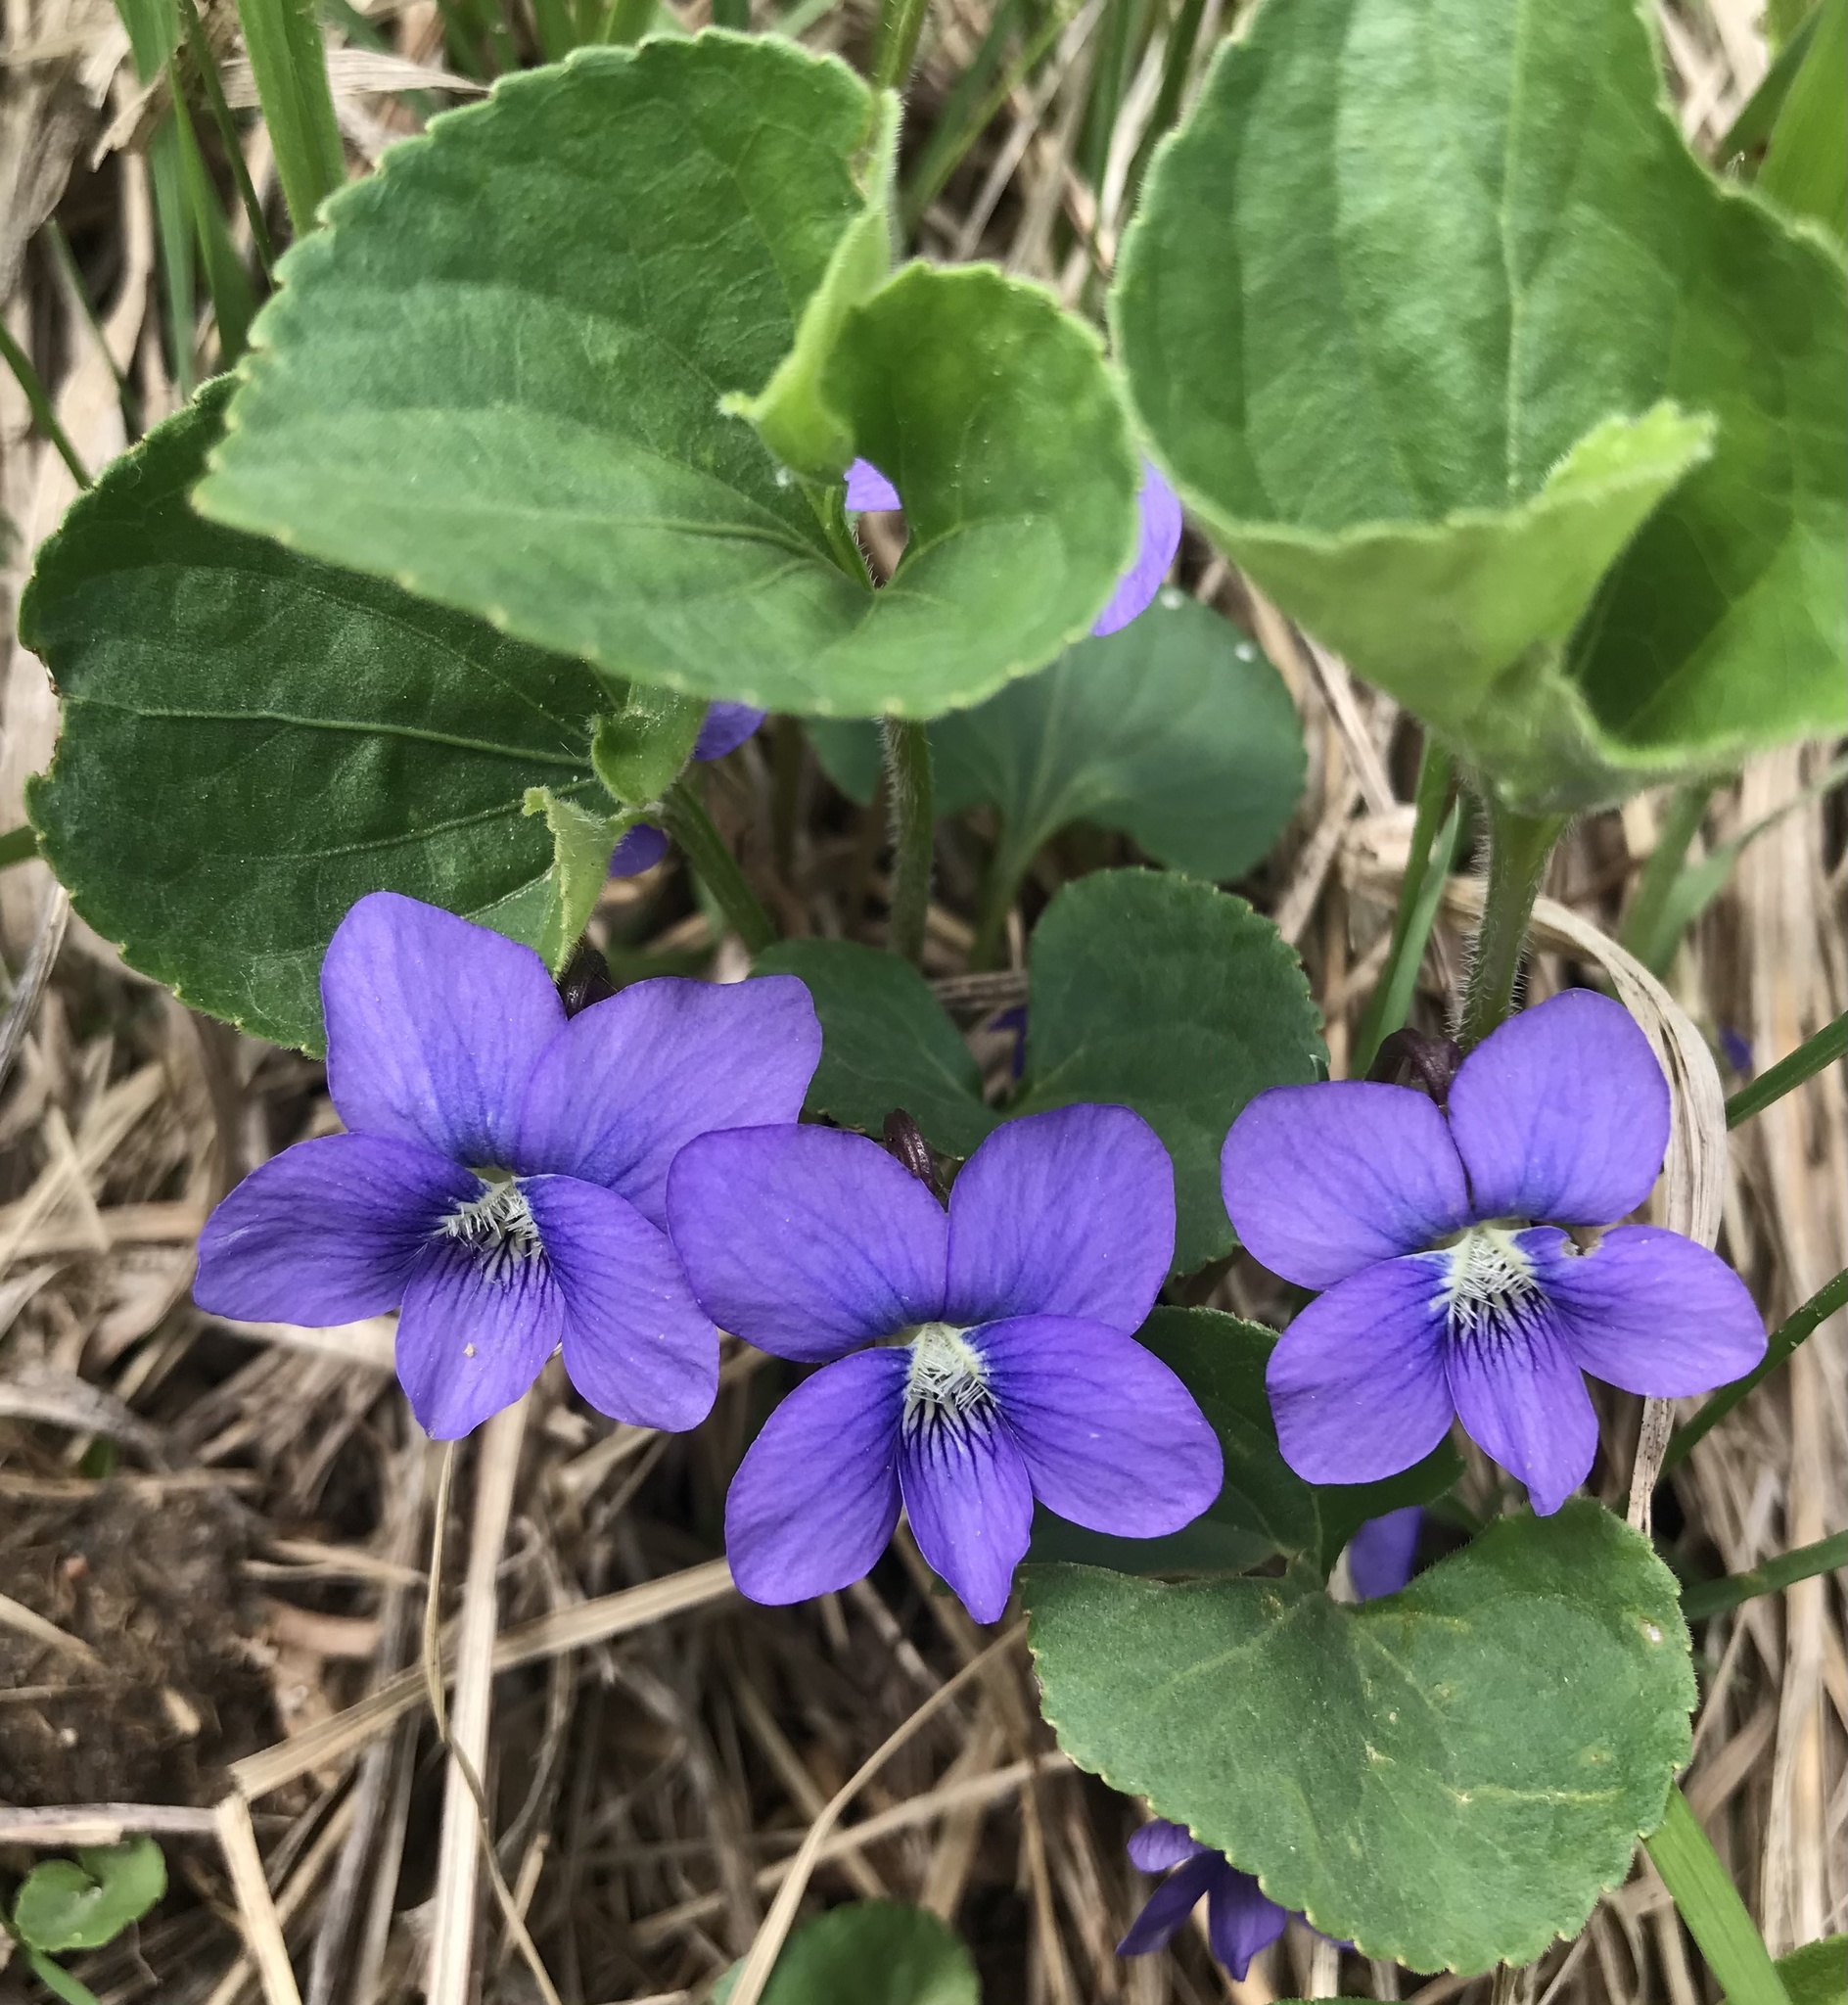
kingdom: Plantae
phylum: Tracheophyta
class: Magnoliopsida
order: Malpighiales
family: Violaceae
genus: Viola
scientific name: Viola sororia
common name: Dooryard violet
